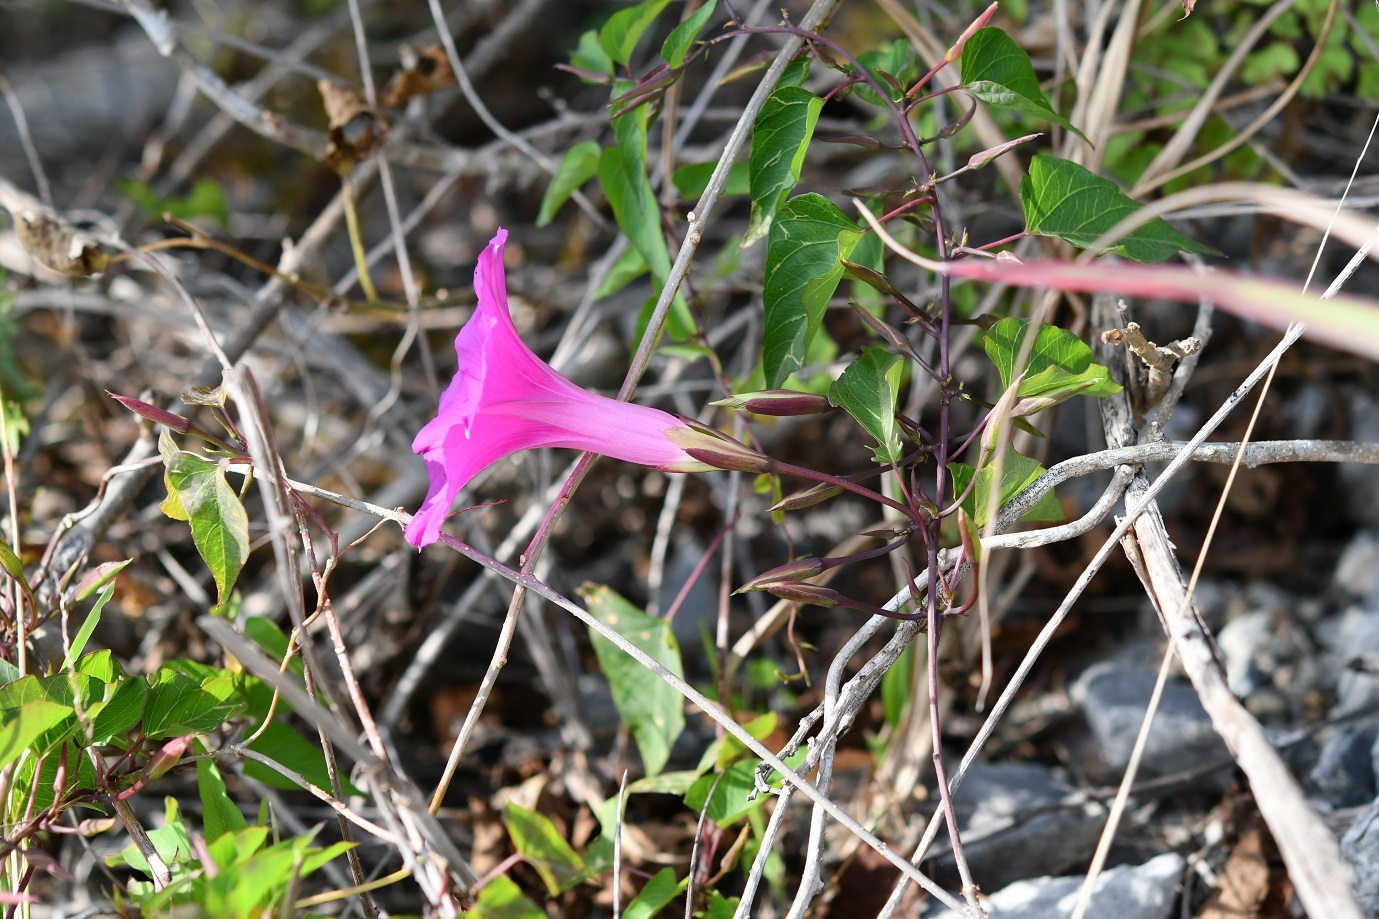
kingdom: Plantae
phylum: Tracheophyta
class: Magnoliopsida
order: Solanales
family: Convolvulaceae
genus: Ipomoea
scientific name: Ipomoea bernoulliana
